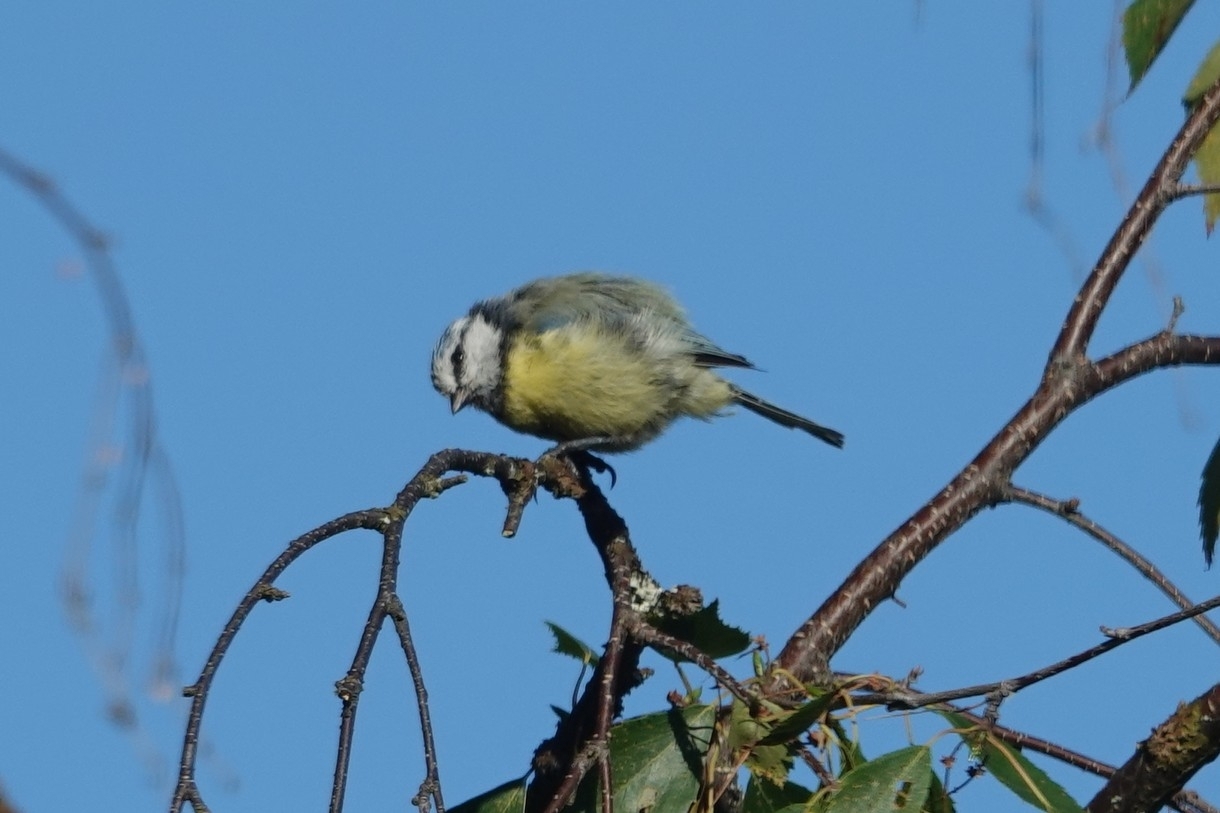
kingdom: Animalia
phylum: Chordata
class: Aves
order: Passeriformes
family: Paridae
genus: Cyanistes
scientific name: Cyanistes caeruleus
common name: Eurasian blue tit
